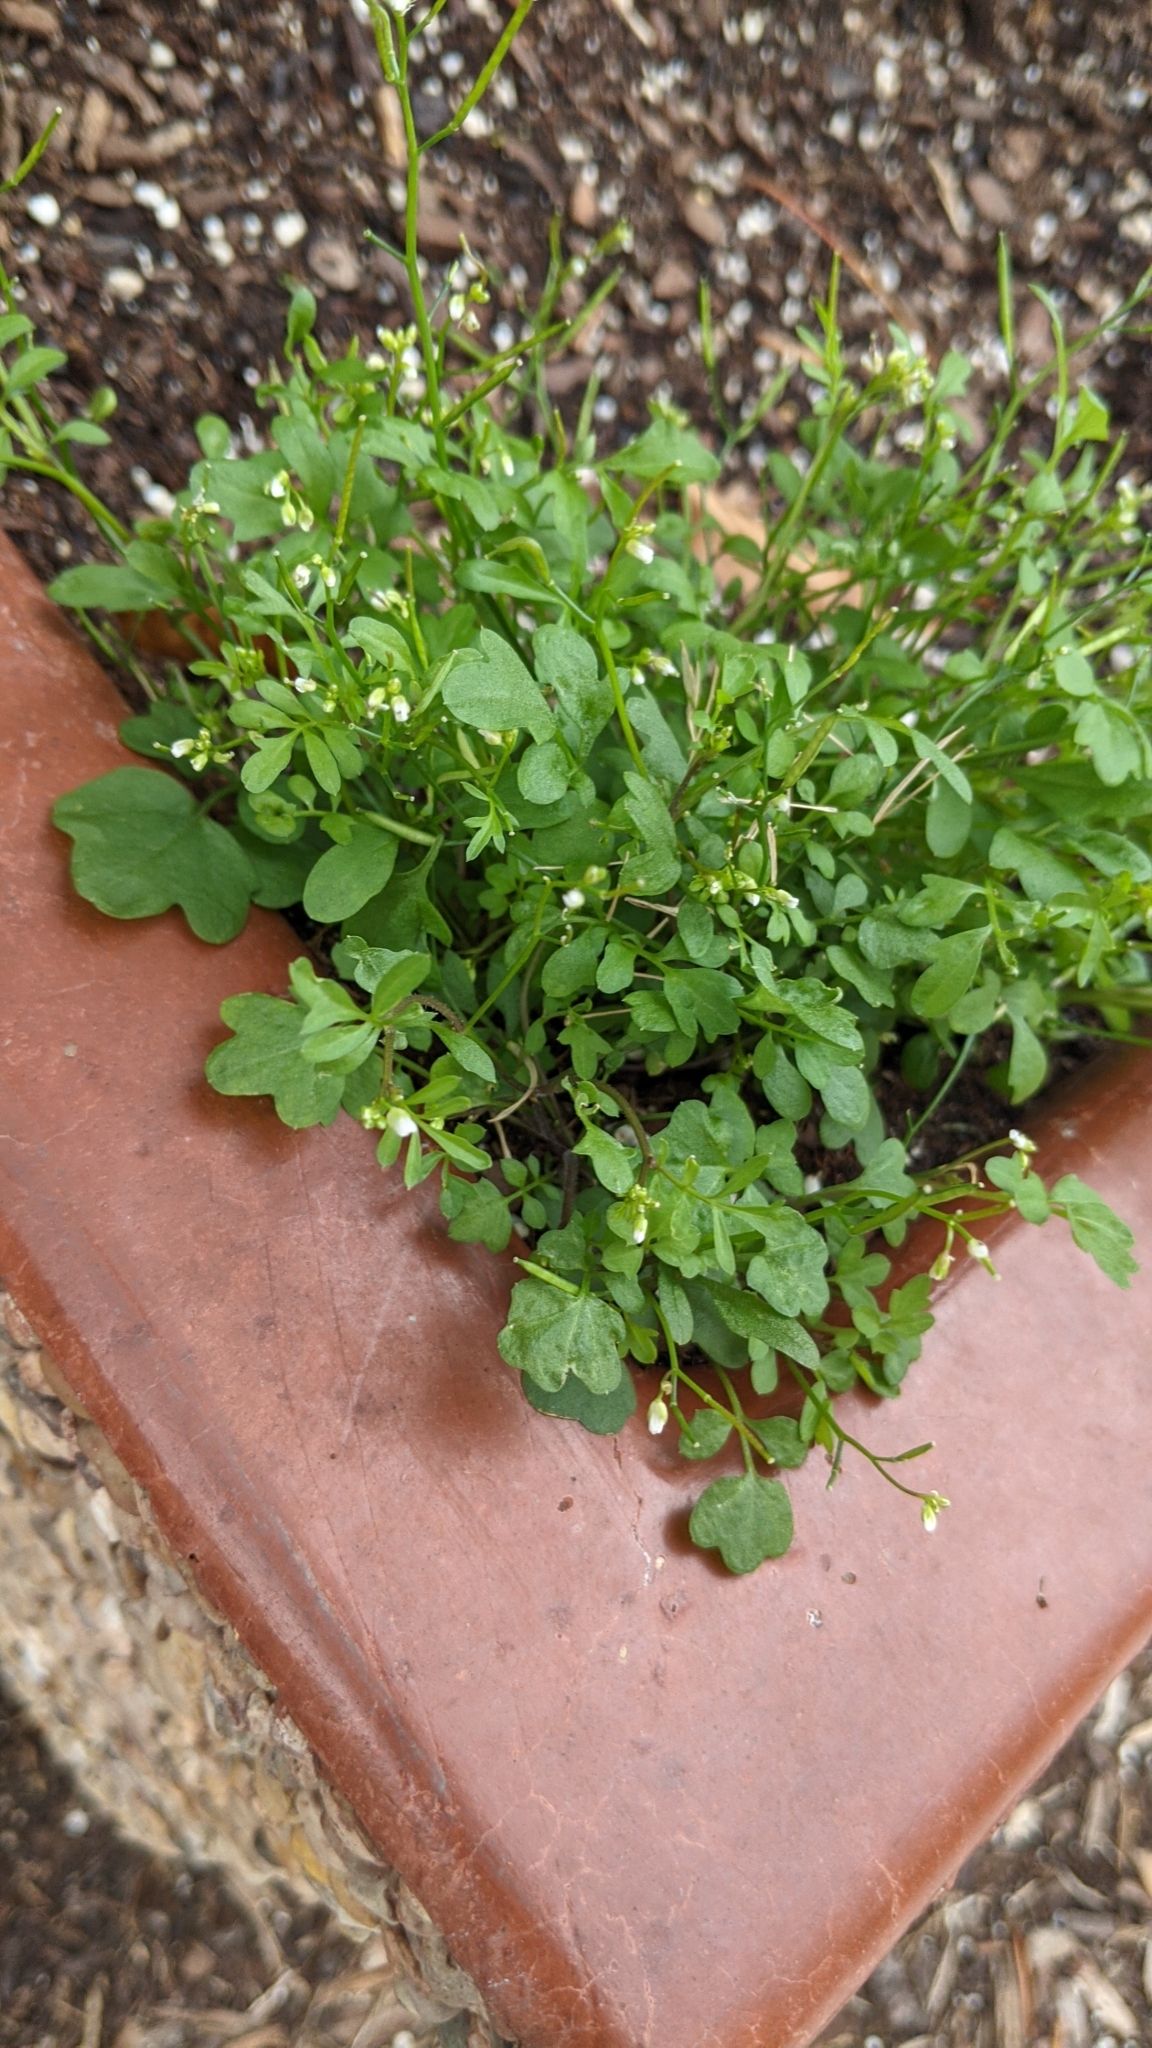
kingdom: Plantae
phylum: Tracheophyta
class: Magnoliopsida
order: Brassicales
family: Brassicaceae
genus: Cardamine
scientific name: Cardamine occulta
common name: Asian wavy bittercress
